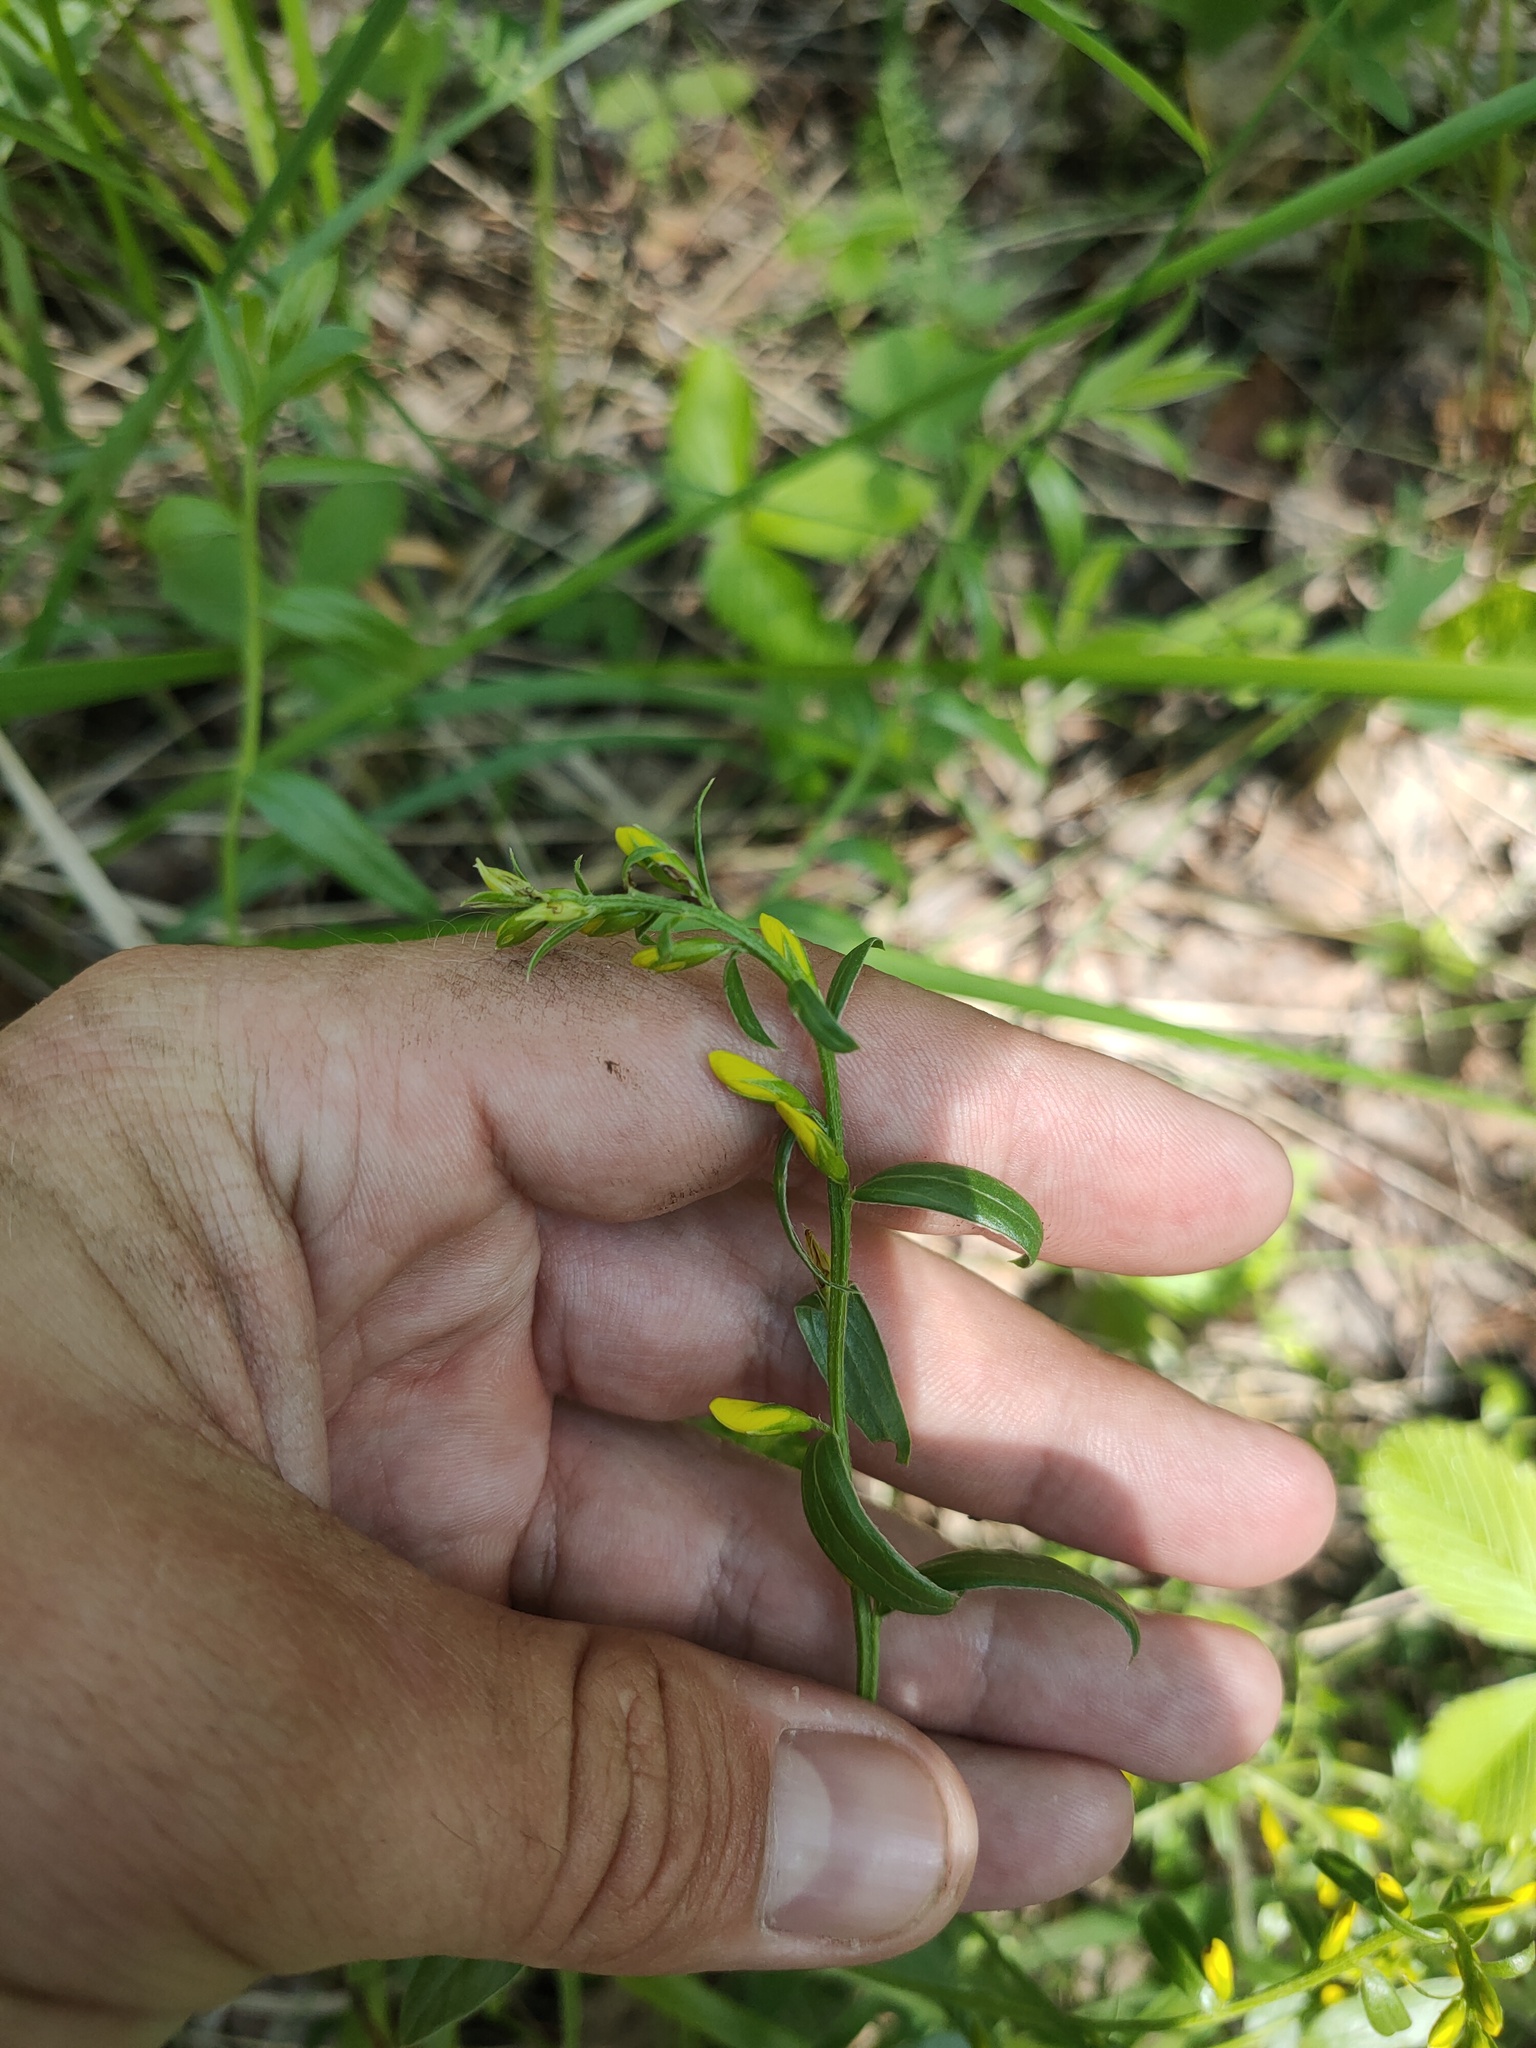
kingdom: Plantae
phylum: Tracheophyta
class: Magnoliopsida
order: Fabales
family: Fabaceae
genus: Genista
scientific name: Genista tinctoria
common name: Dyer's greenweed
